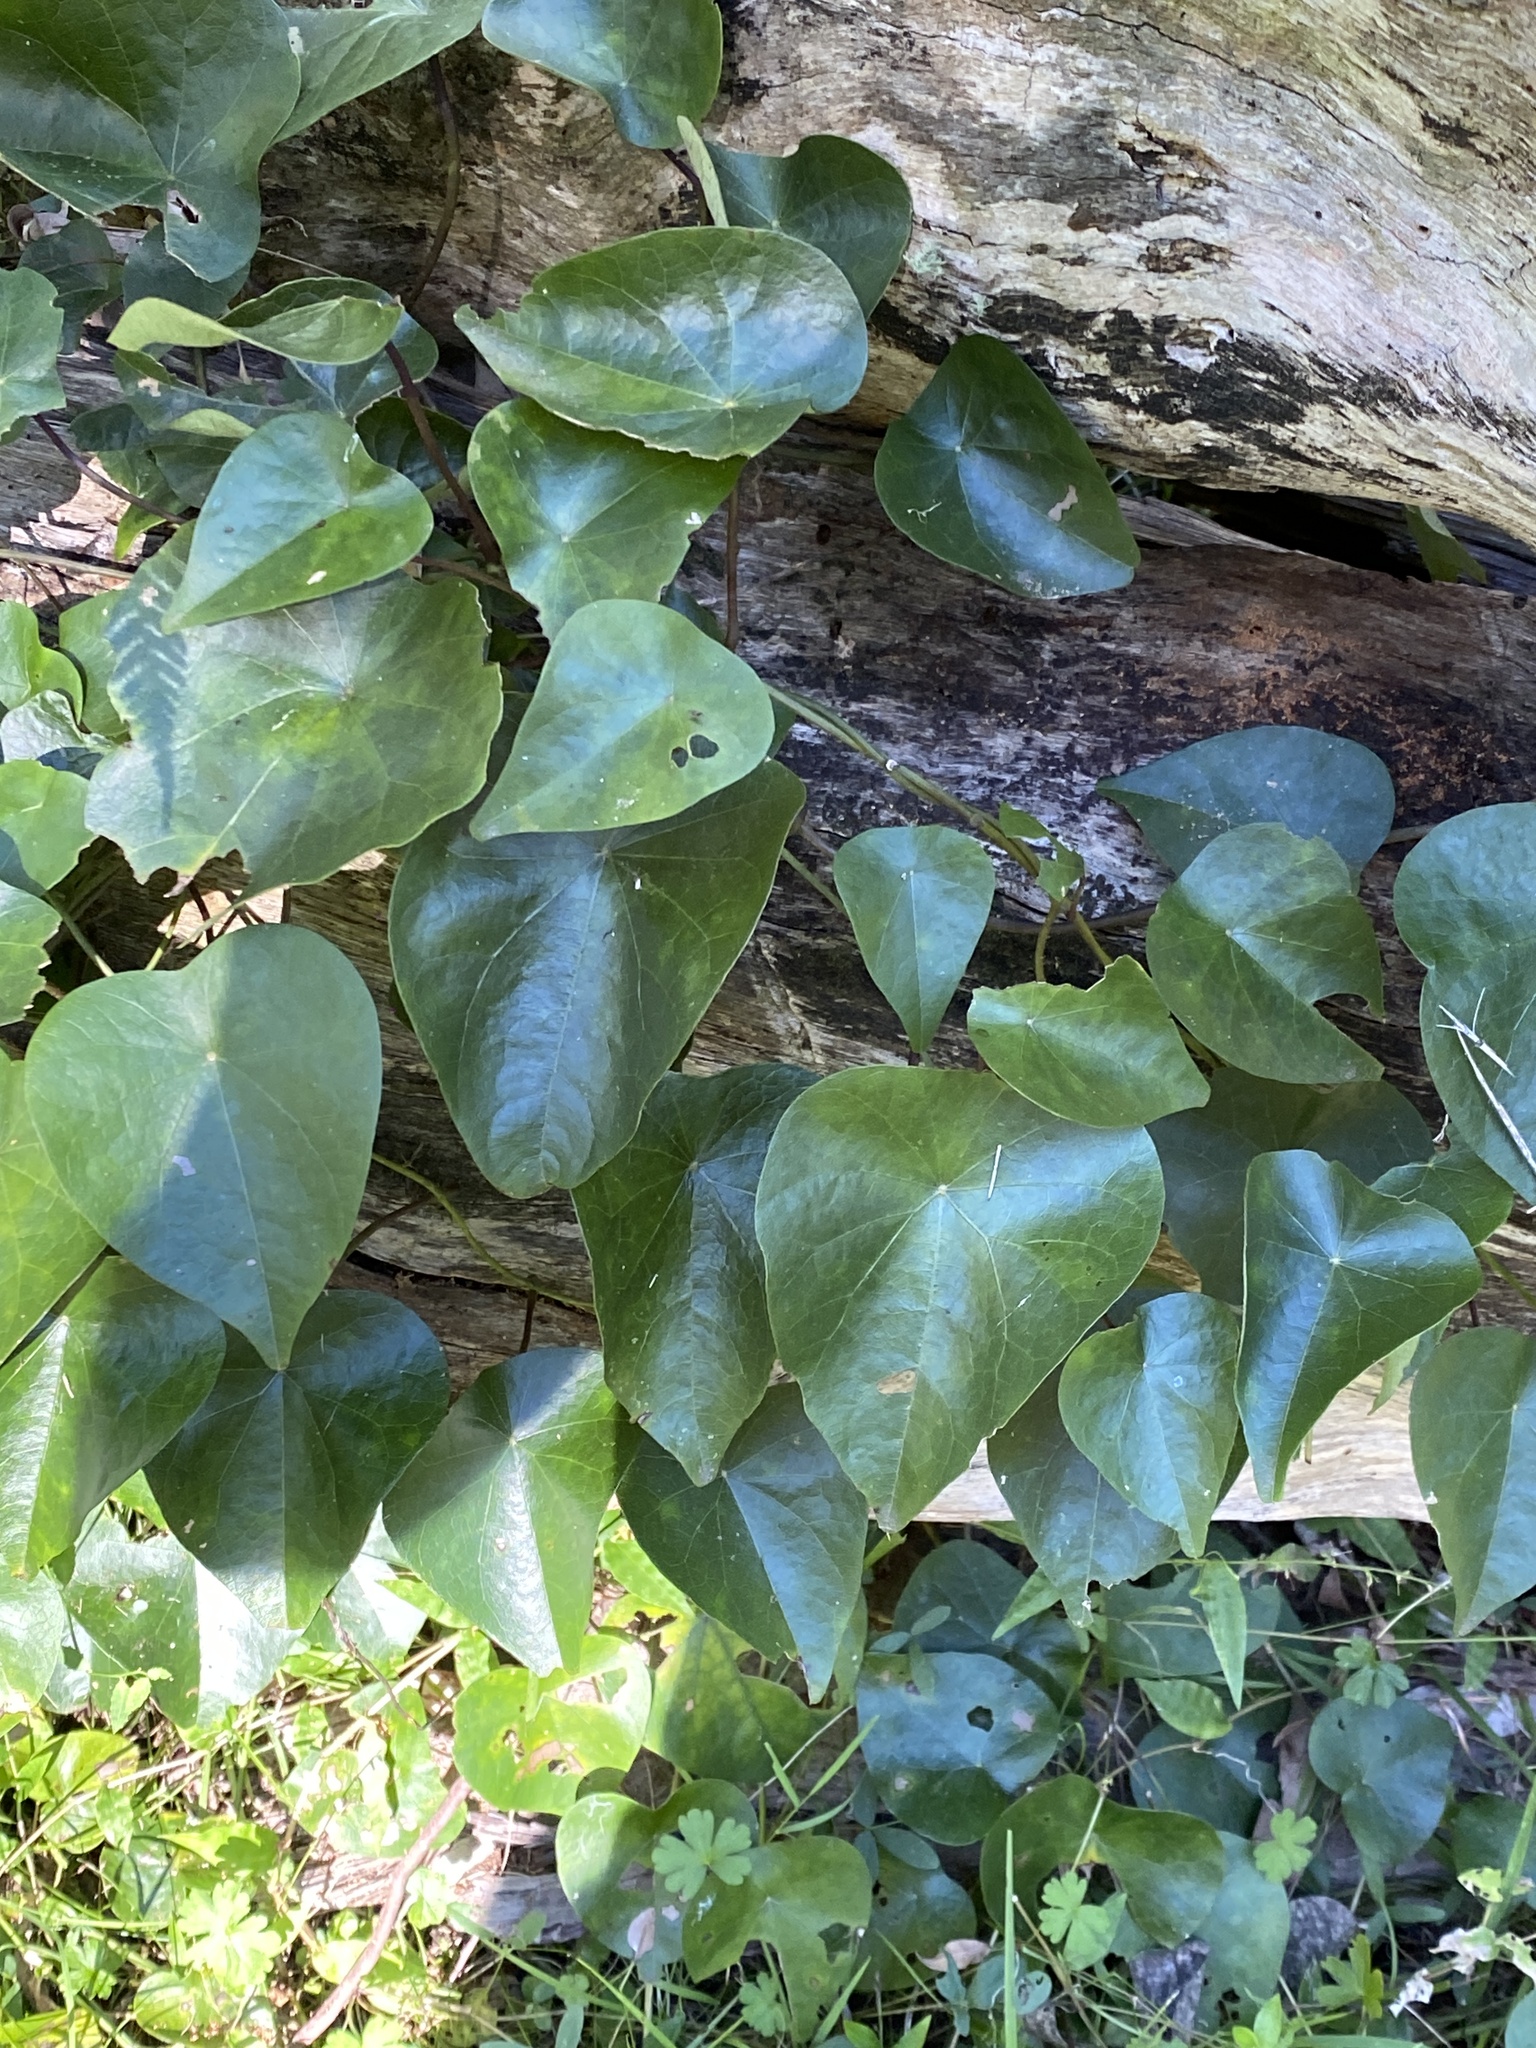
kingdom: Plantae
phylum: Tracheophyta
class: Magnoliopsida
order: Ranunculales
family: Menispermaceae
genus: Stephania
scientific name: Stephania japonica
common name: Snake vine
